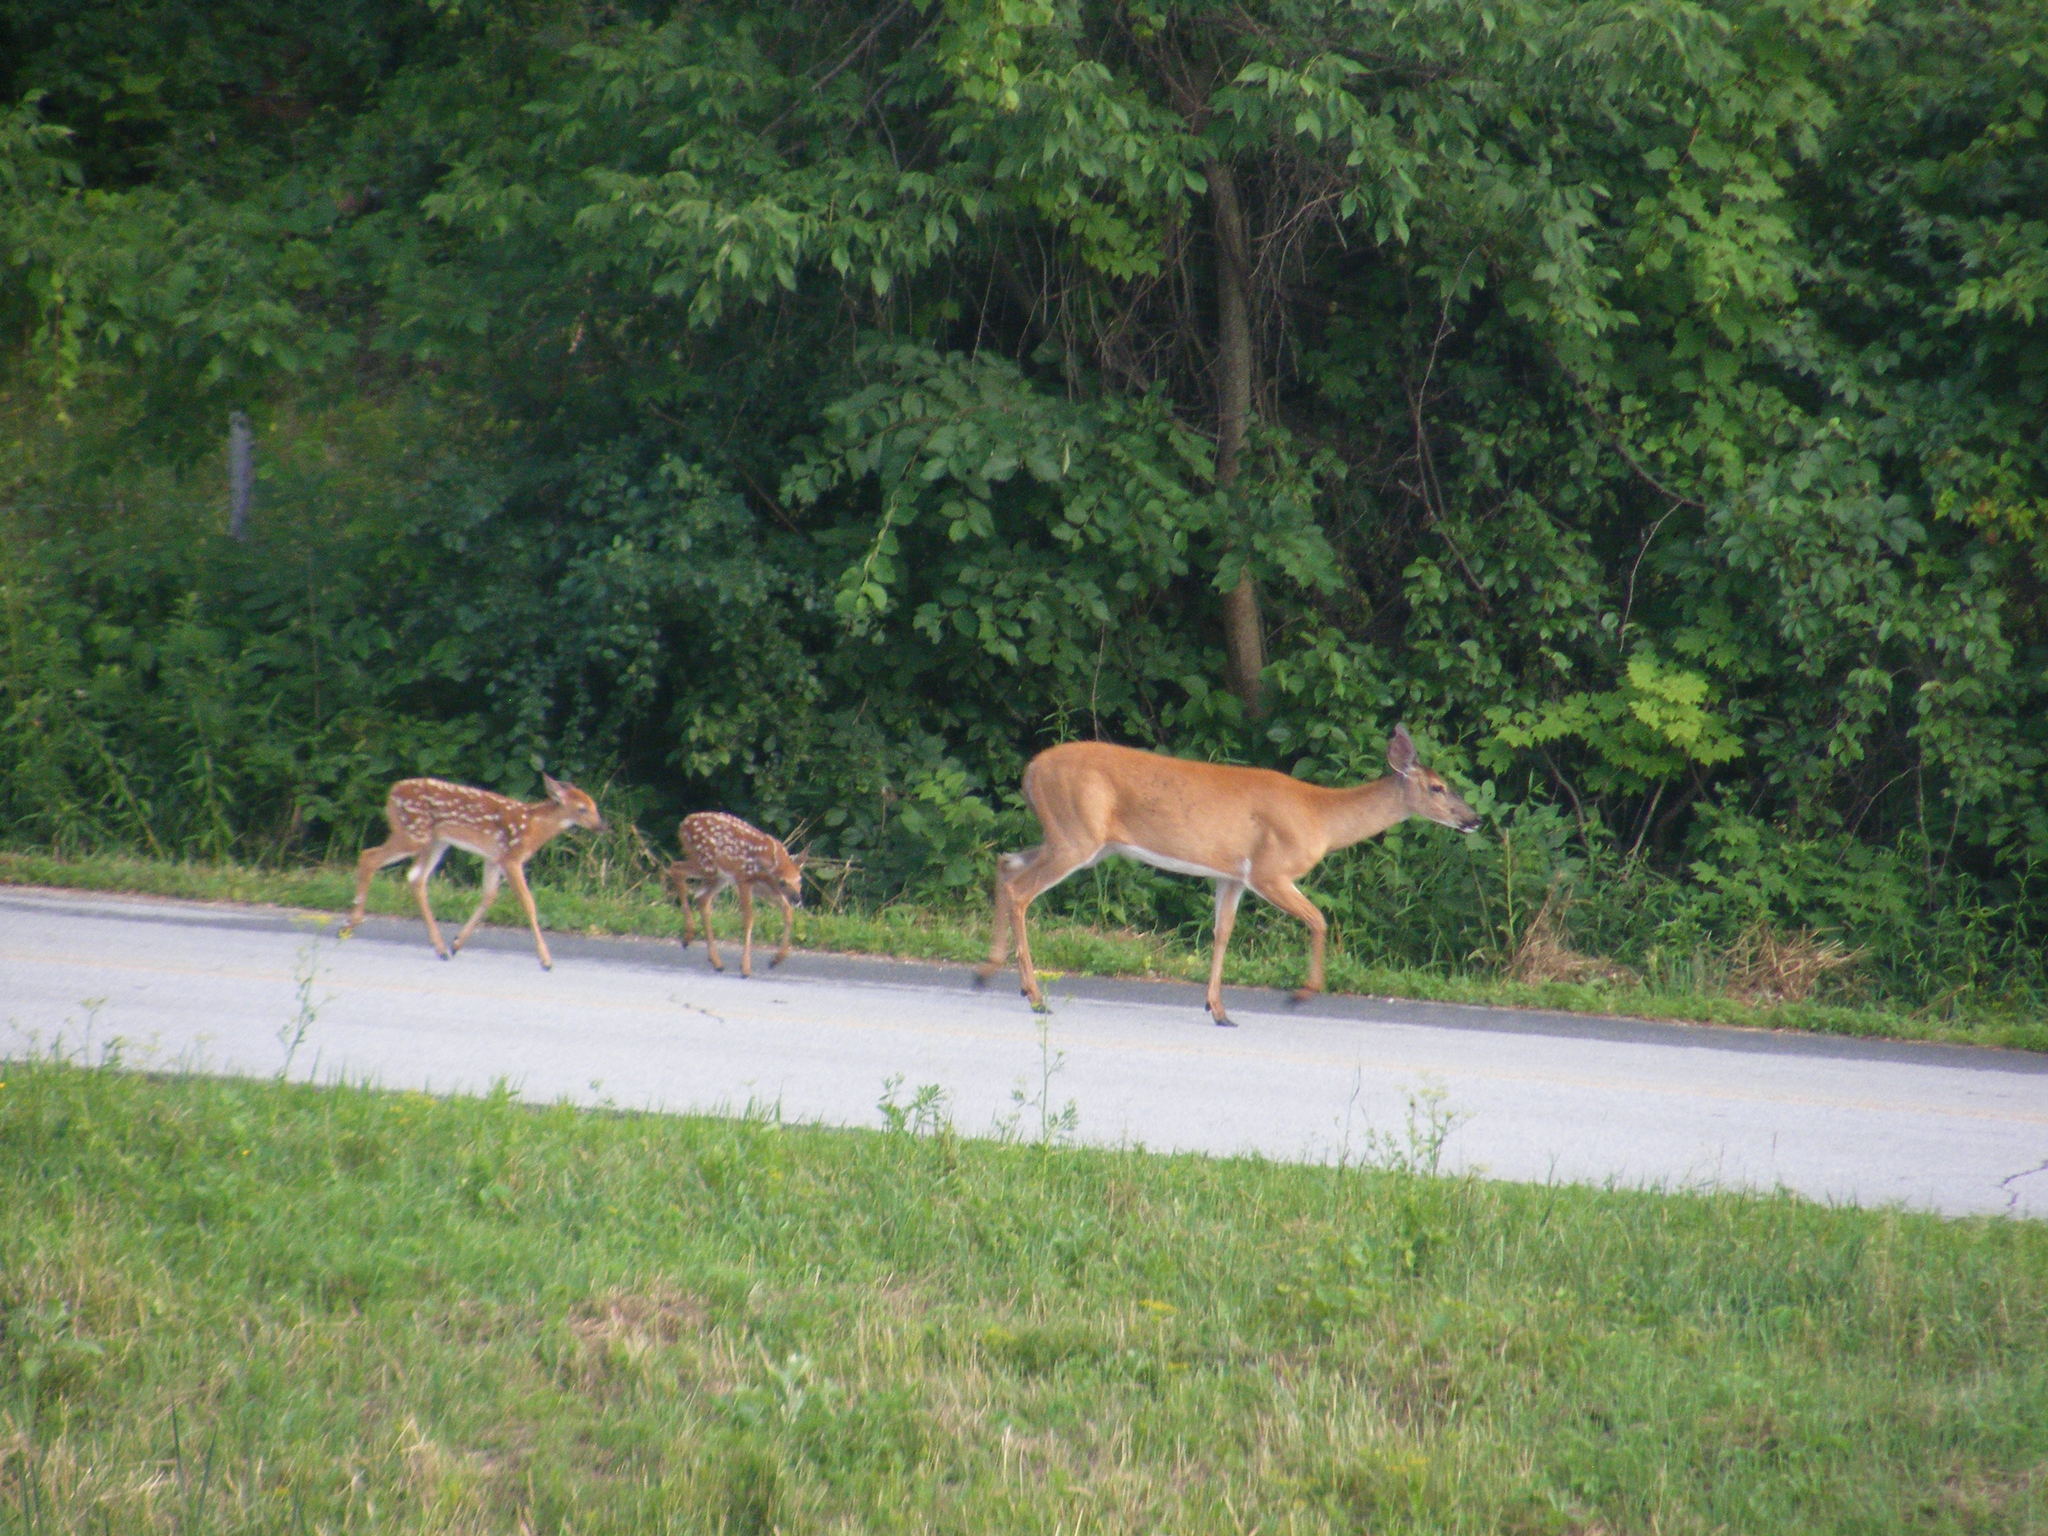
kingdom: Animalia
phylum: Chordata
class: Mammalia
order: Artiodactyla
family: Cervidae
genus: Odocoileus
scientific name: Odocoileus virginianus
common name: White-tailed deer
